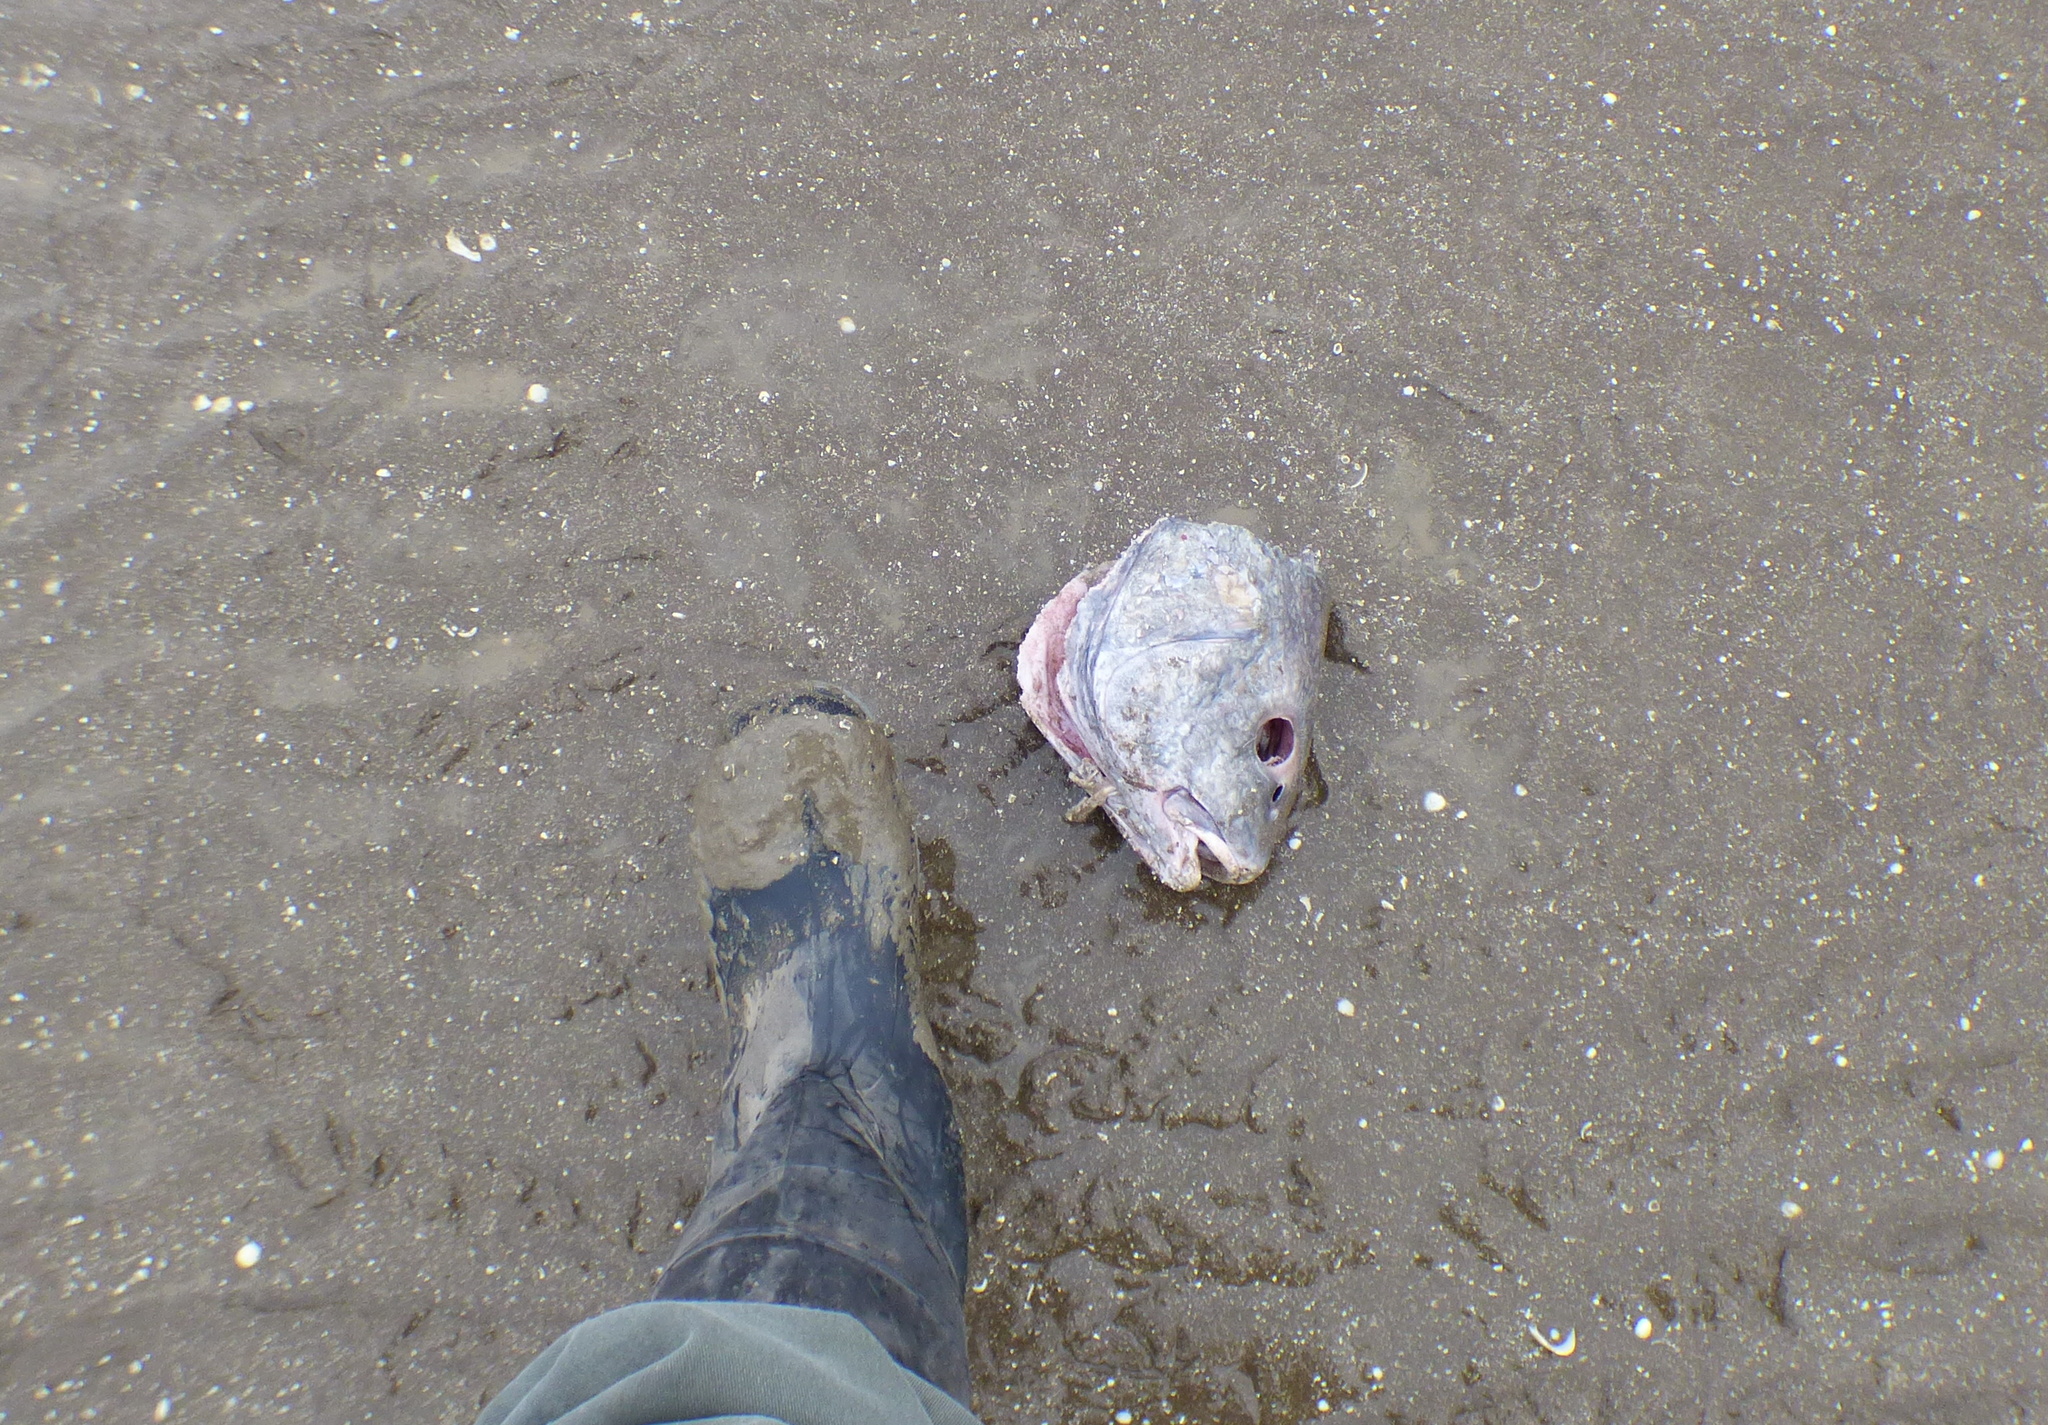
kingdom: Animalia
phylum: Chordata
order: Perciformes
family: Sciaenidae
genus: Pogonias
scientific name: Pogonias cromis
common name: Black drum
